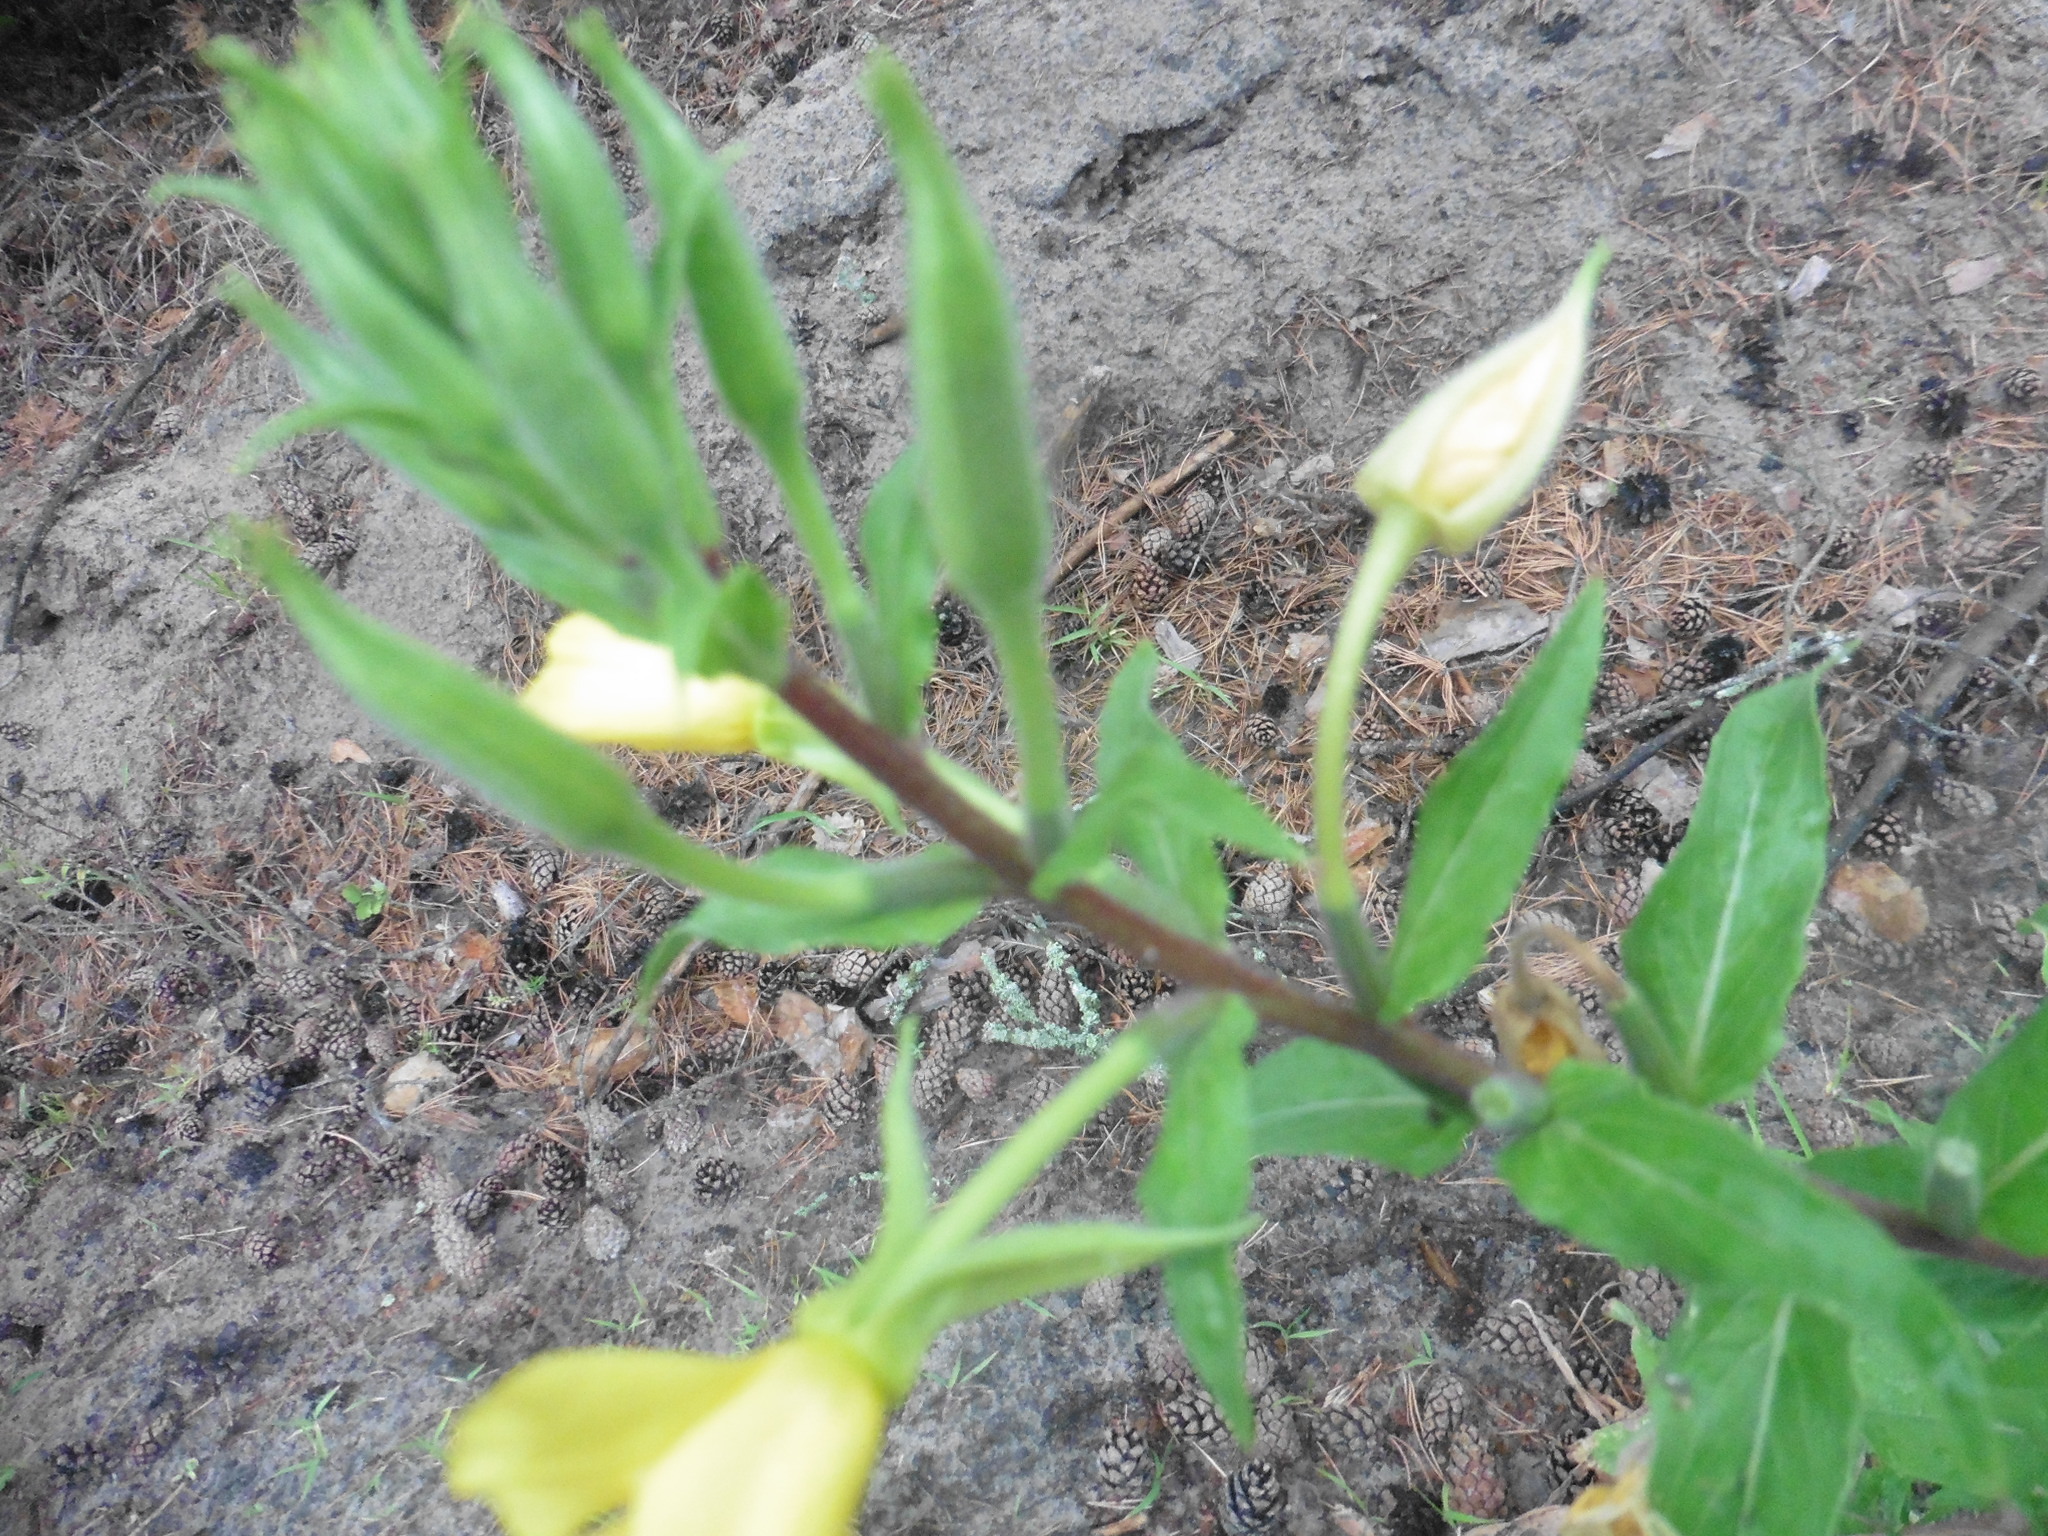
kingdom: Plantae
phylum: Tracheophyta
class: Magnoliopsida
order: Myrtales
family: Onagraceae
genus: Oenothera
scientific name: Oenothera rubricaulis
